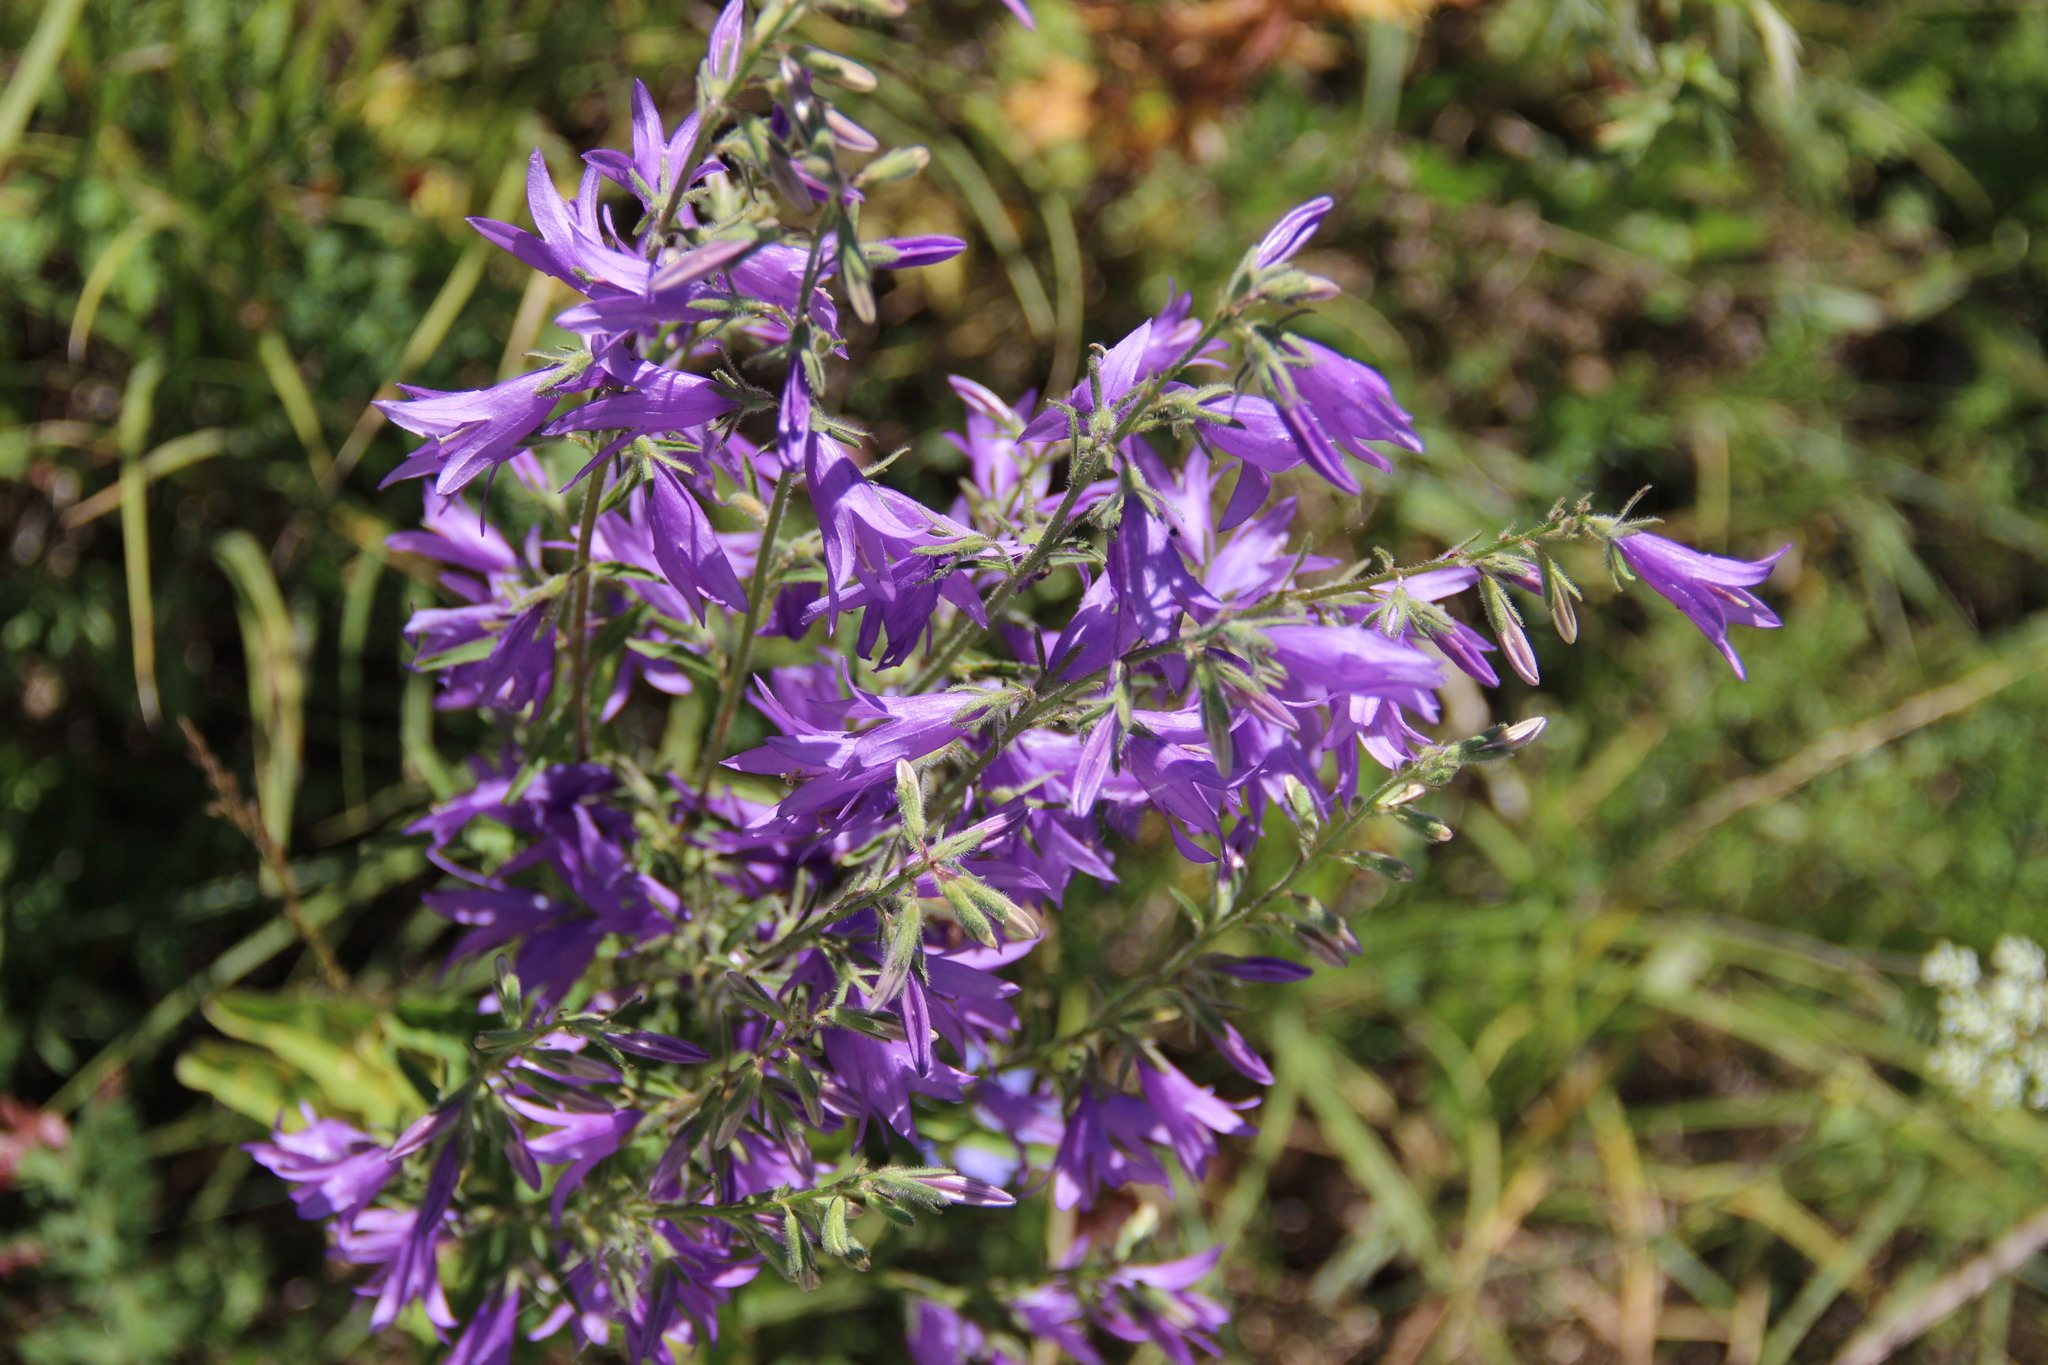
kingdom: Plantae
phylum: Tracheophyta
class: Magnoliopsida
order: Asterales
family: Campanulaceae
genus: Campanula
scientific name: Campanula rapunculoides
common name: Creeping bellflower
